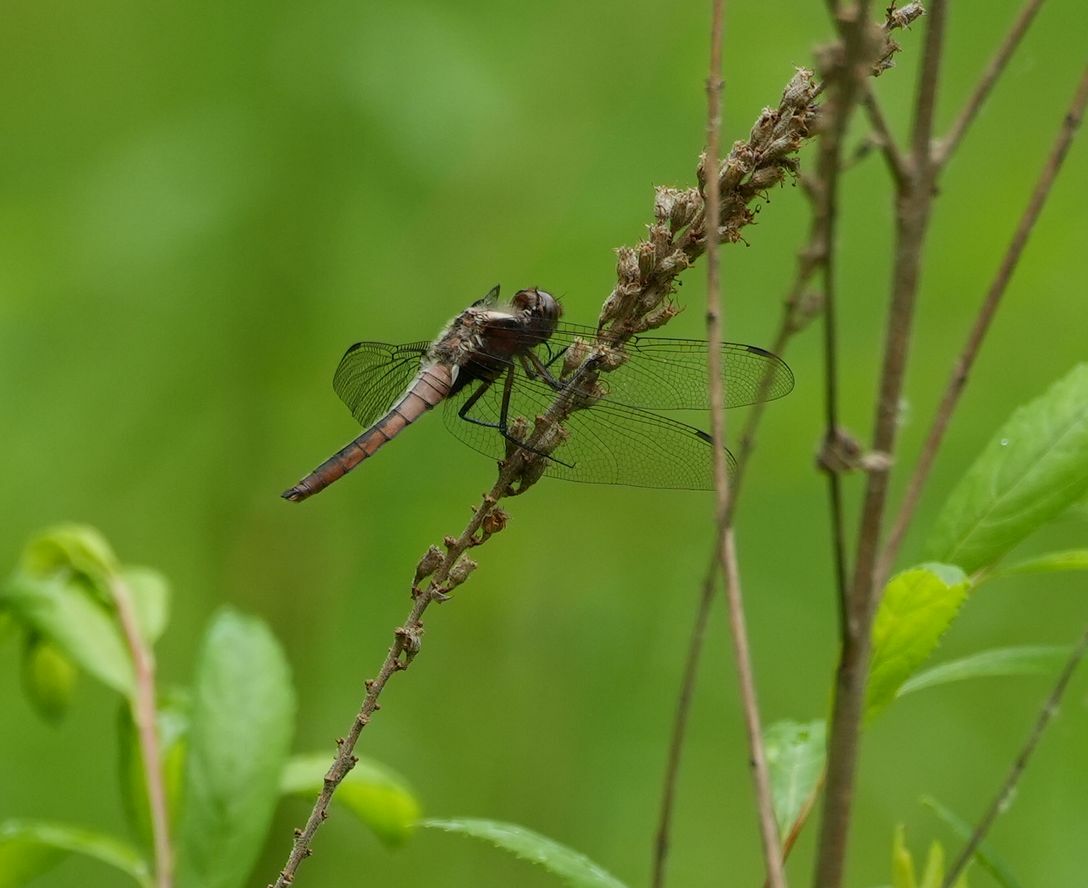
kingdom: Animalia
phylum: Arthropoda
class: Insecta
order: Odonata
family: Libellulidae
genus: Ladona
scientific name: Ladona julia
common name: Chalk-fronted corporal
